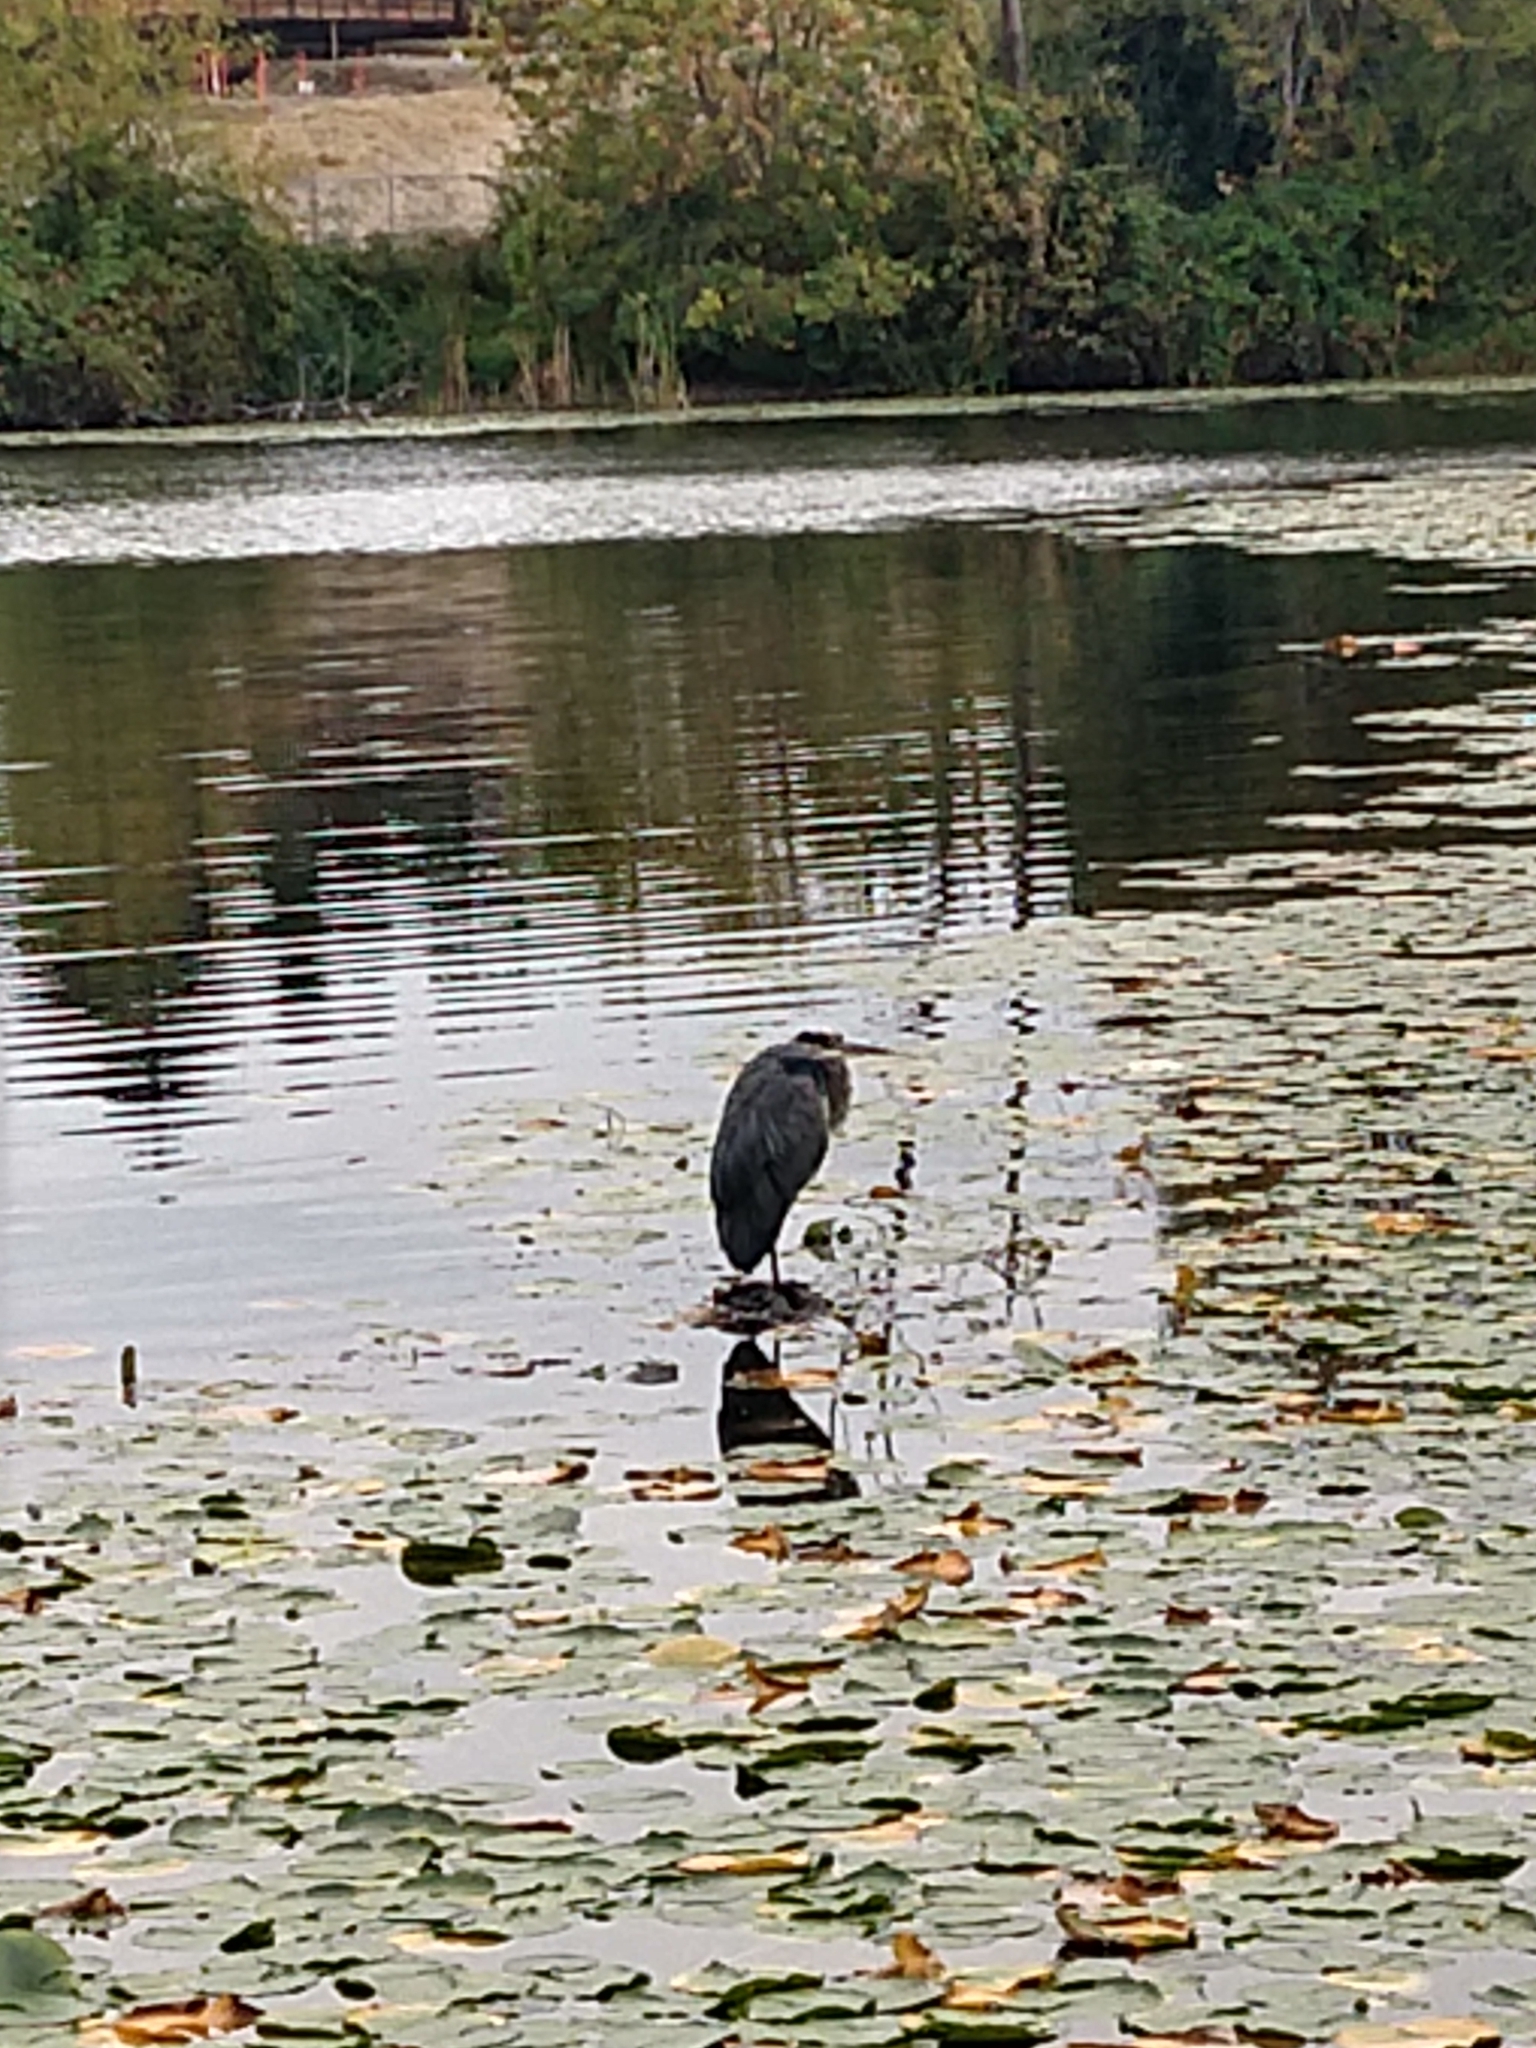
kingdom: Animalia
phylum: Chordata
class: Aves
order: Pelecaniformes
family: Ardeidae
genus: Ardea
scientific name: Ardea herodias
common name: Great blue heron
